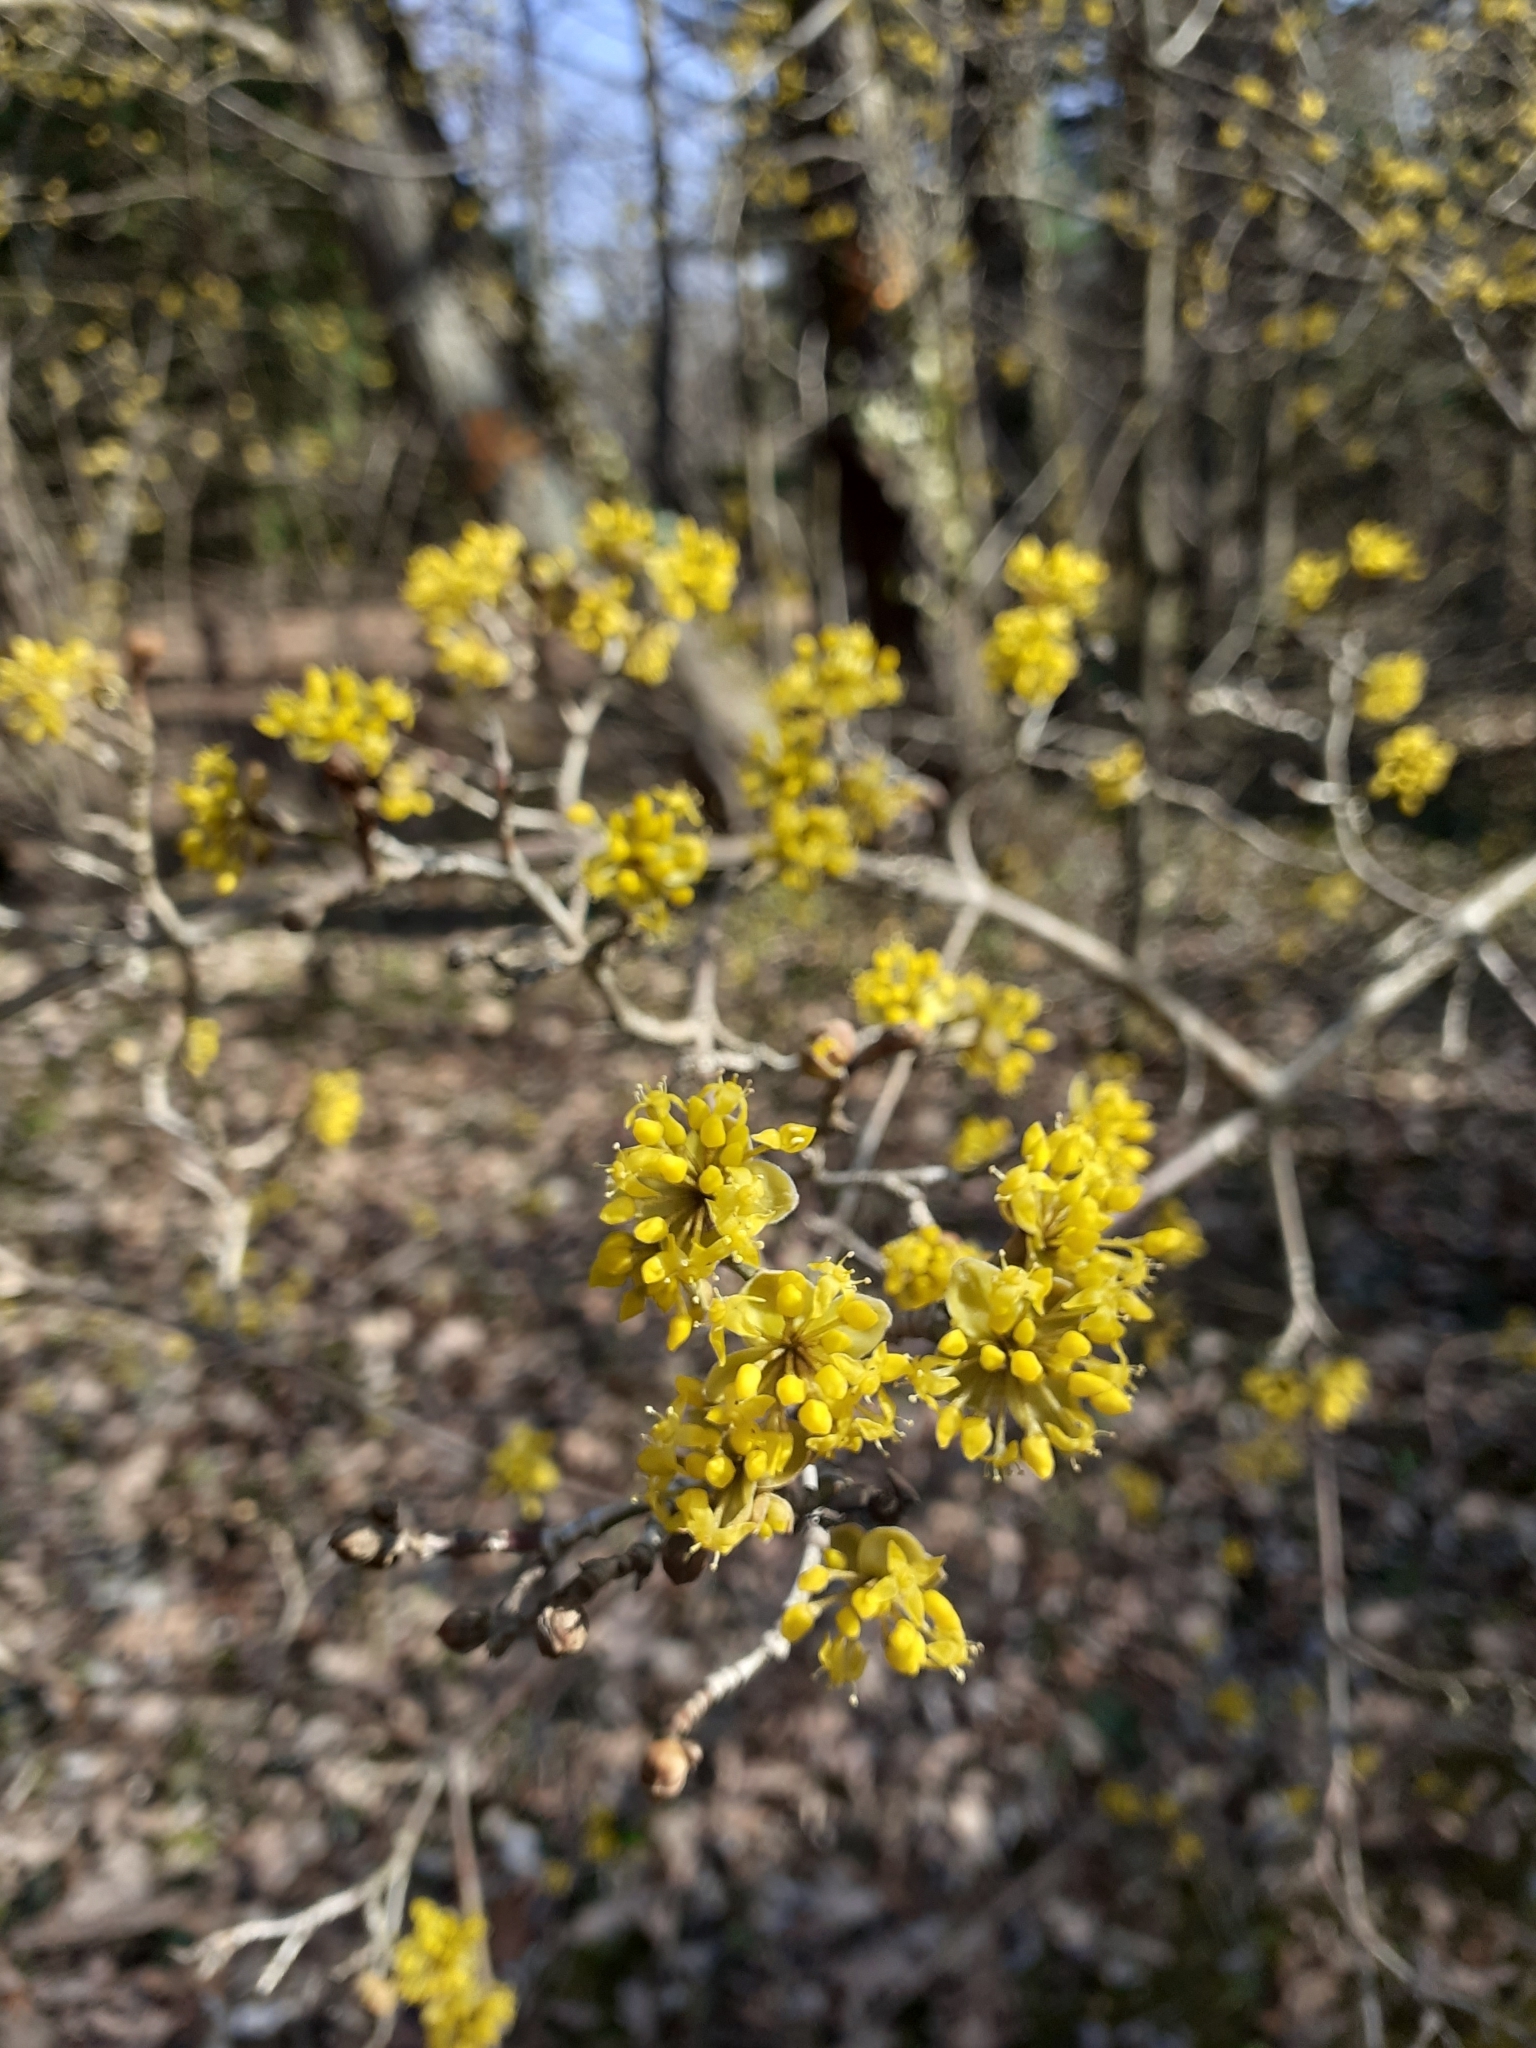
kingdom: Plantae
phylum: Tracheophyta
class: Magnoliopsida
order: Cornales
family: Cornaceae
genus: Cornus
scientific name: Cornus mas
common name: Cornelian-cherry
